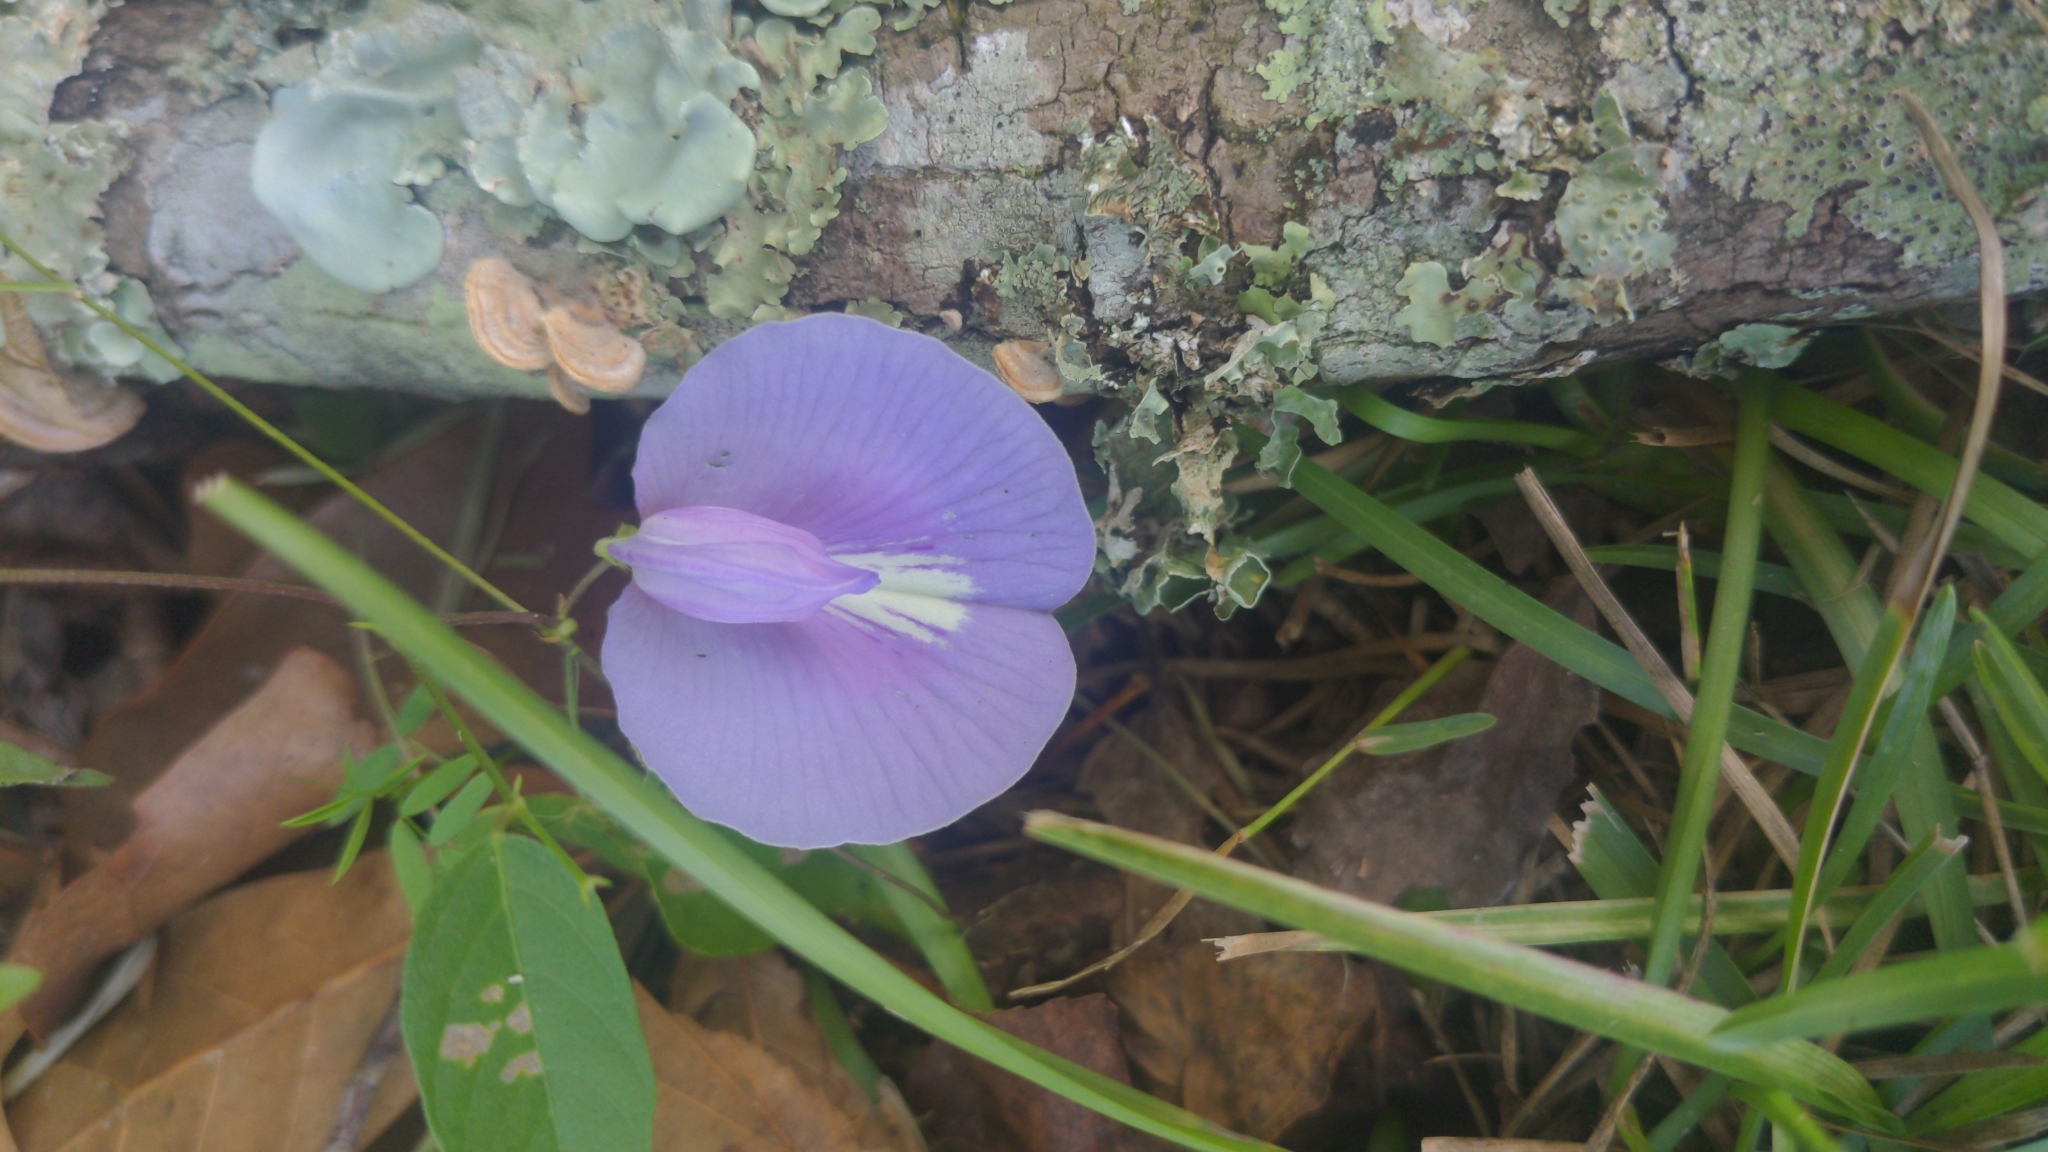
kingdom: Plantae
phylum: Tracheophyta
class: Magnoliopsida
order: Fabales
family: Fabaceae
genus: Centrosema
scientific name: Centrosema virginianum
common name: Butterfly-pea
